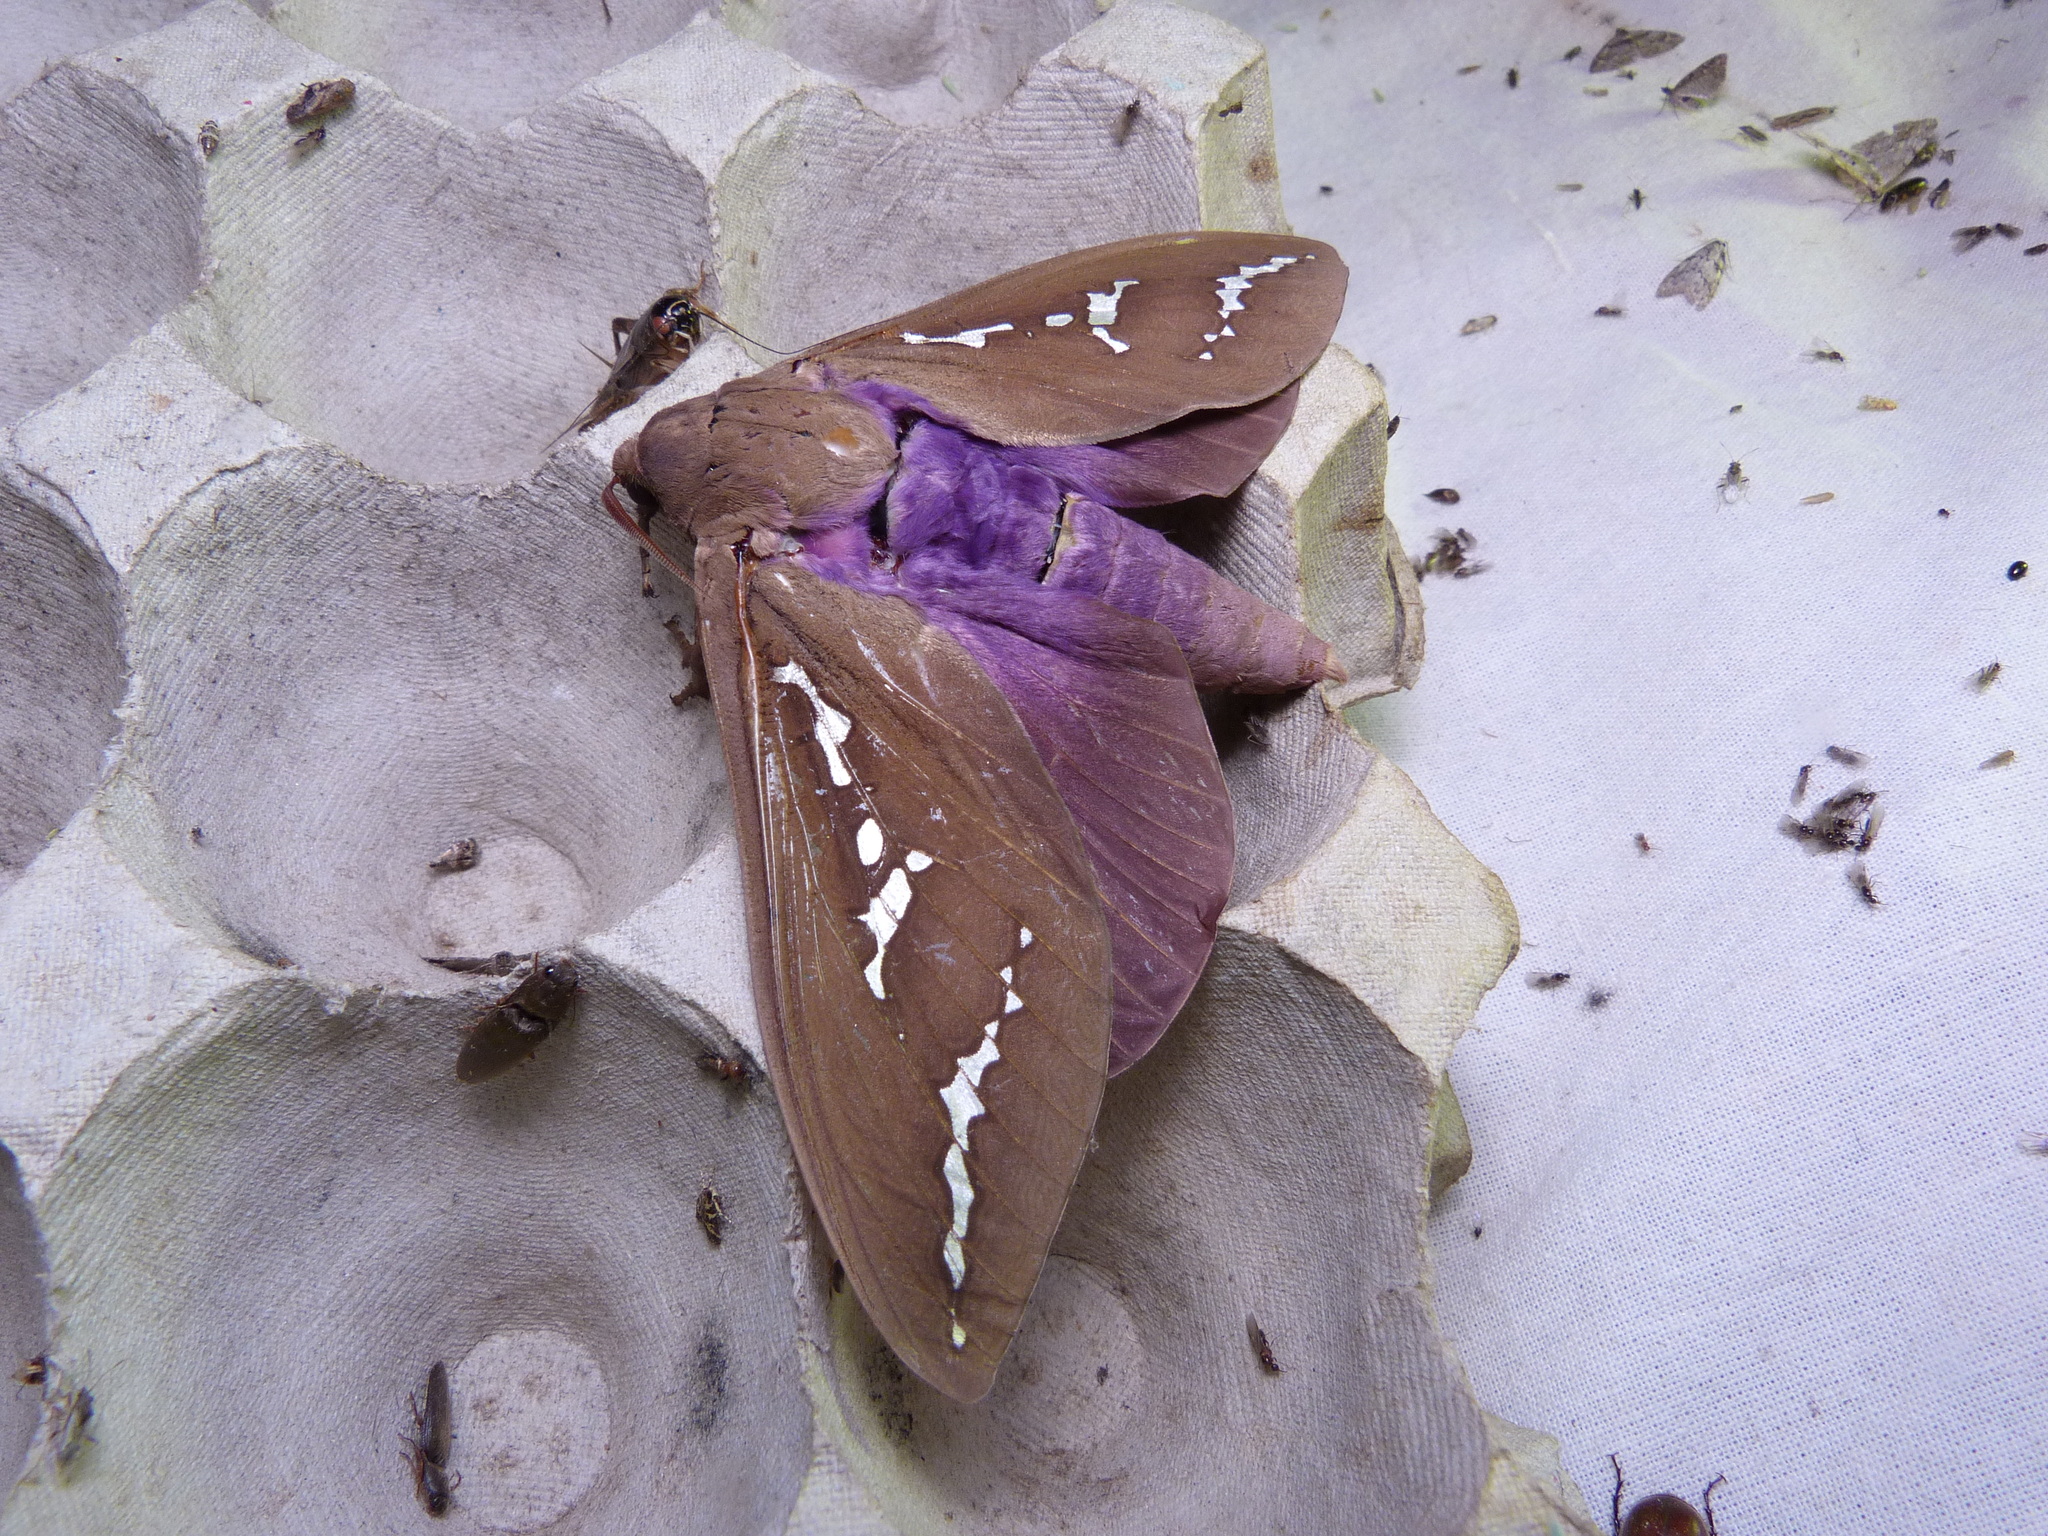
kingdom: Animalia
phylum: Arthropoda
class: Insecta
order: Lepidoptera
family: Hepialidae
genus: Abantiades
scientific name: Abantiades hyalinatus
